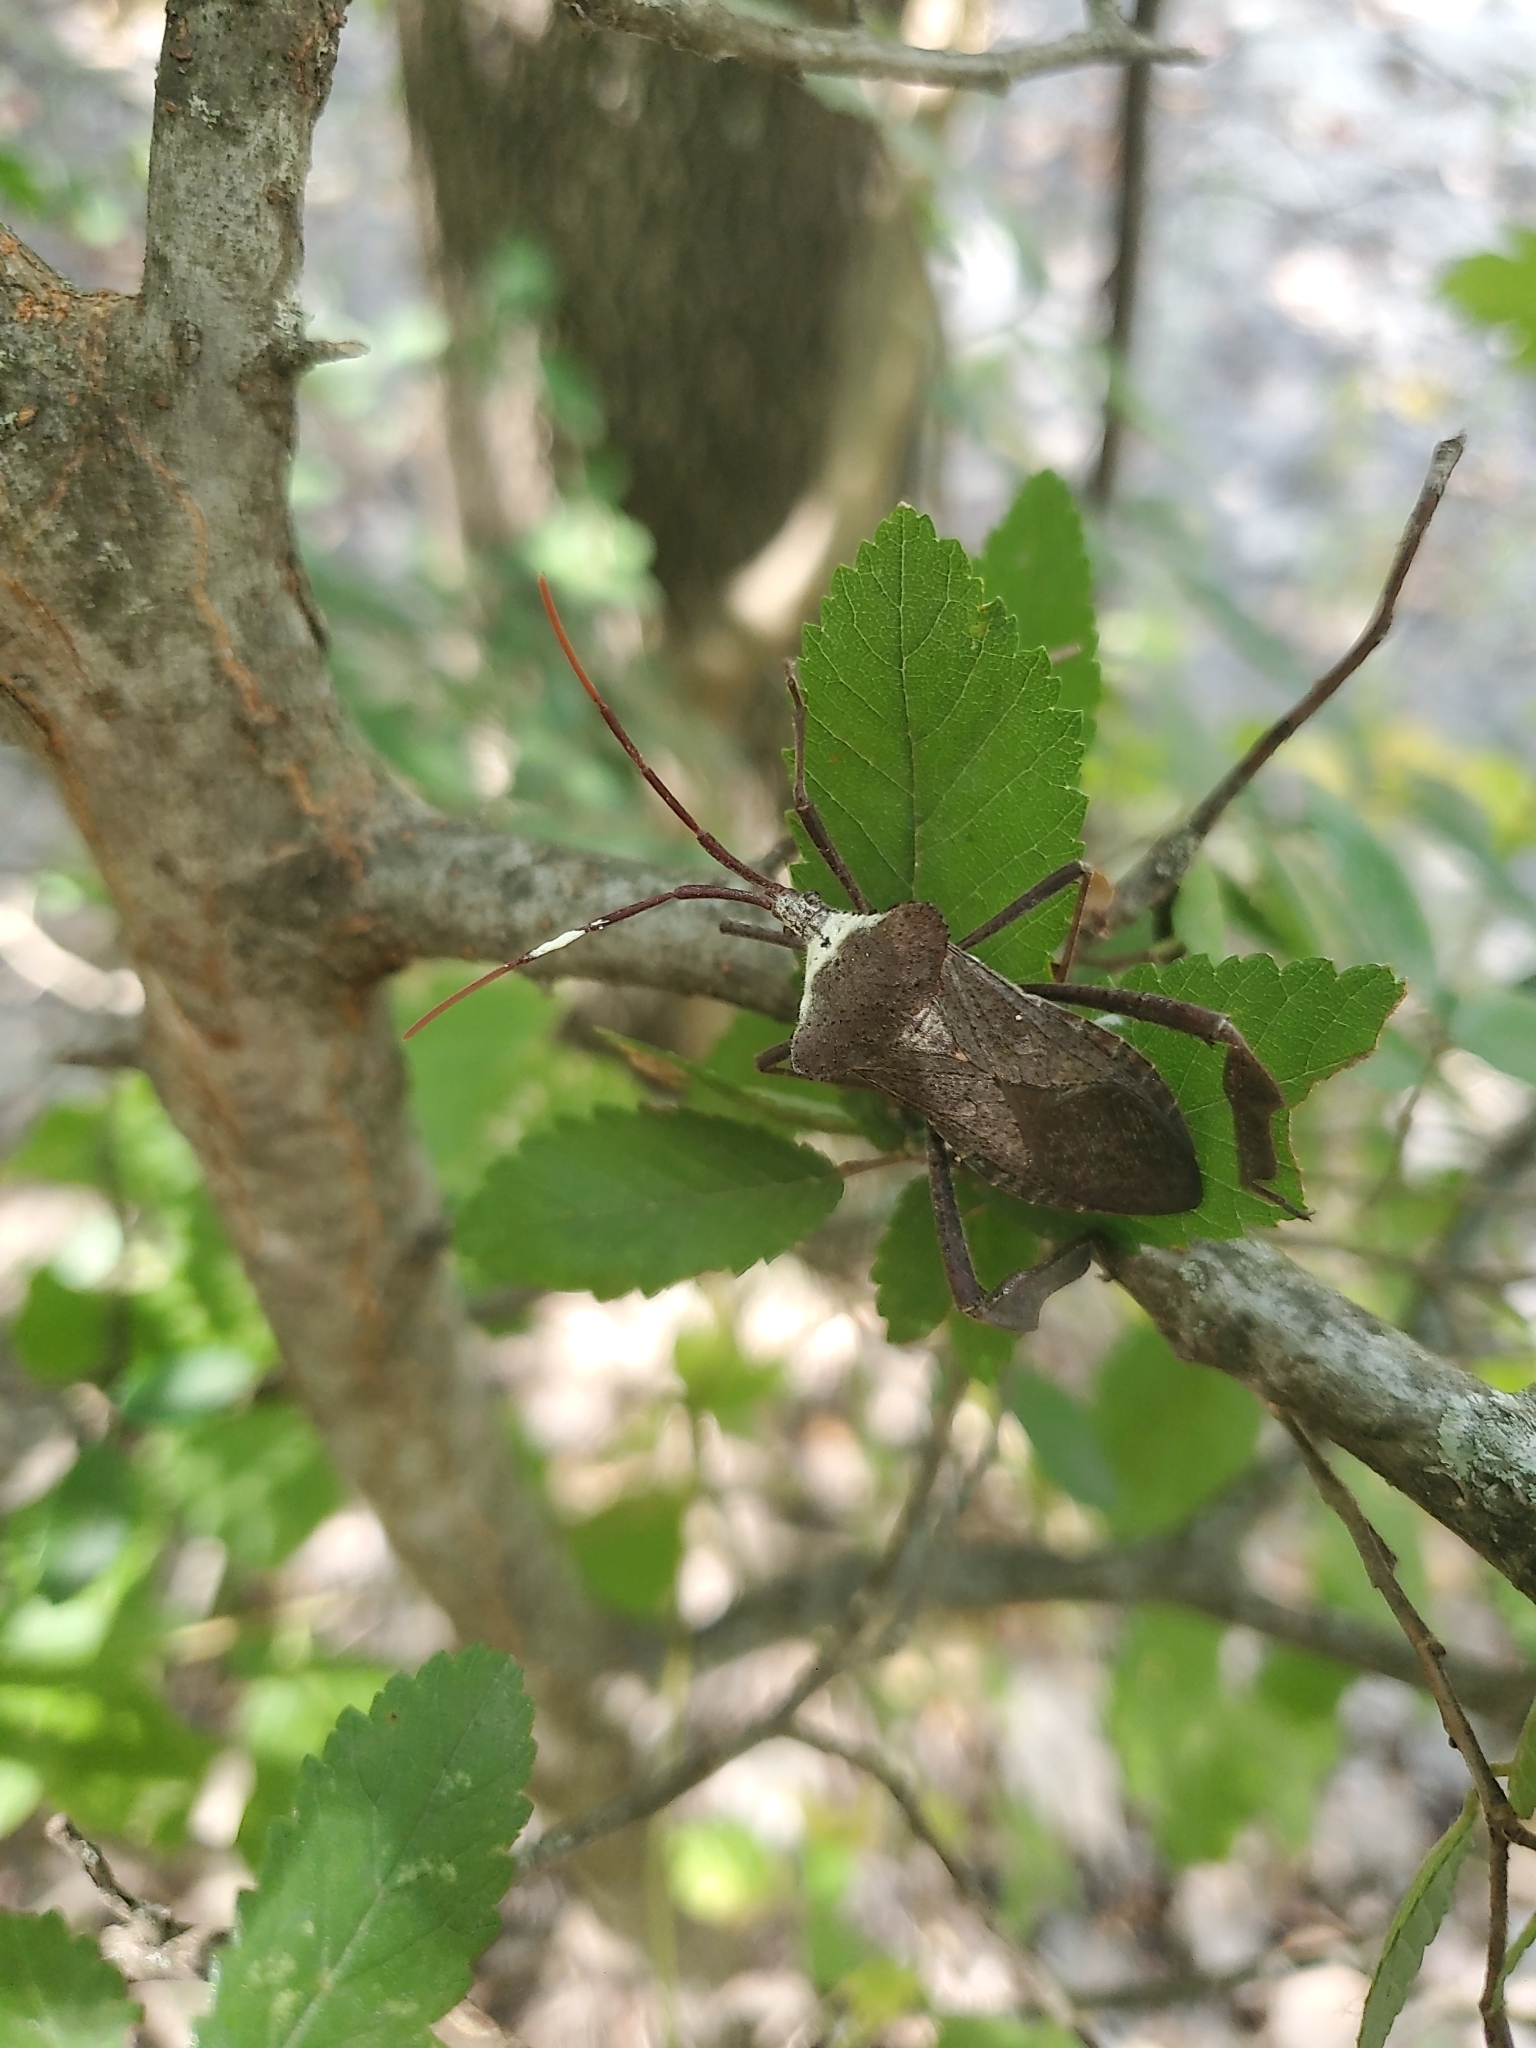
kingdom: Animalia
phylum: Arthropoda
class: Insecta
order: Hemiptera
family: Coreidae
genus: Acanthocephala
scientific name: Acanthocephala declivis
